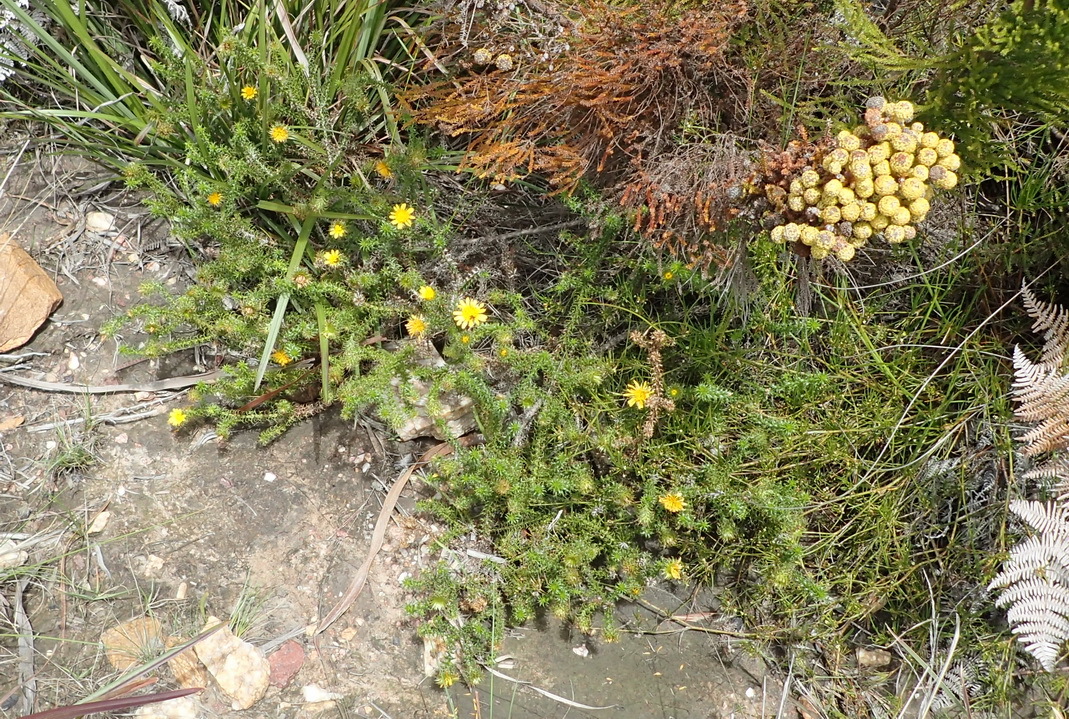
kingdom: Plantae
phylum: Tracheophyta
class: Magnoliopsida
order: Asterales
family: Asteraceae
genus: Cullumia
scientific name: Cullumia decurrens
